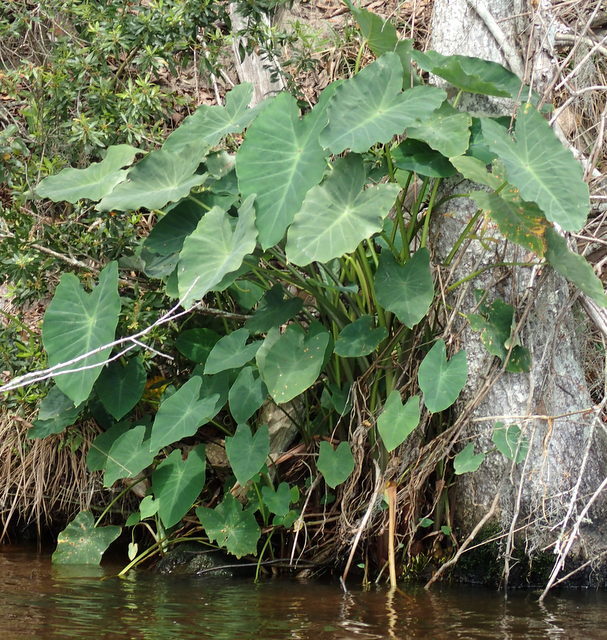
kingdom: Plantae
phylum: Tracheophyta
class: Liliopsida
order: Alismatales
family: Araceae
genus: Colocasia
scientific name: Colocasia esculenta
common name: Taro
